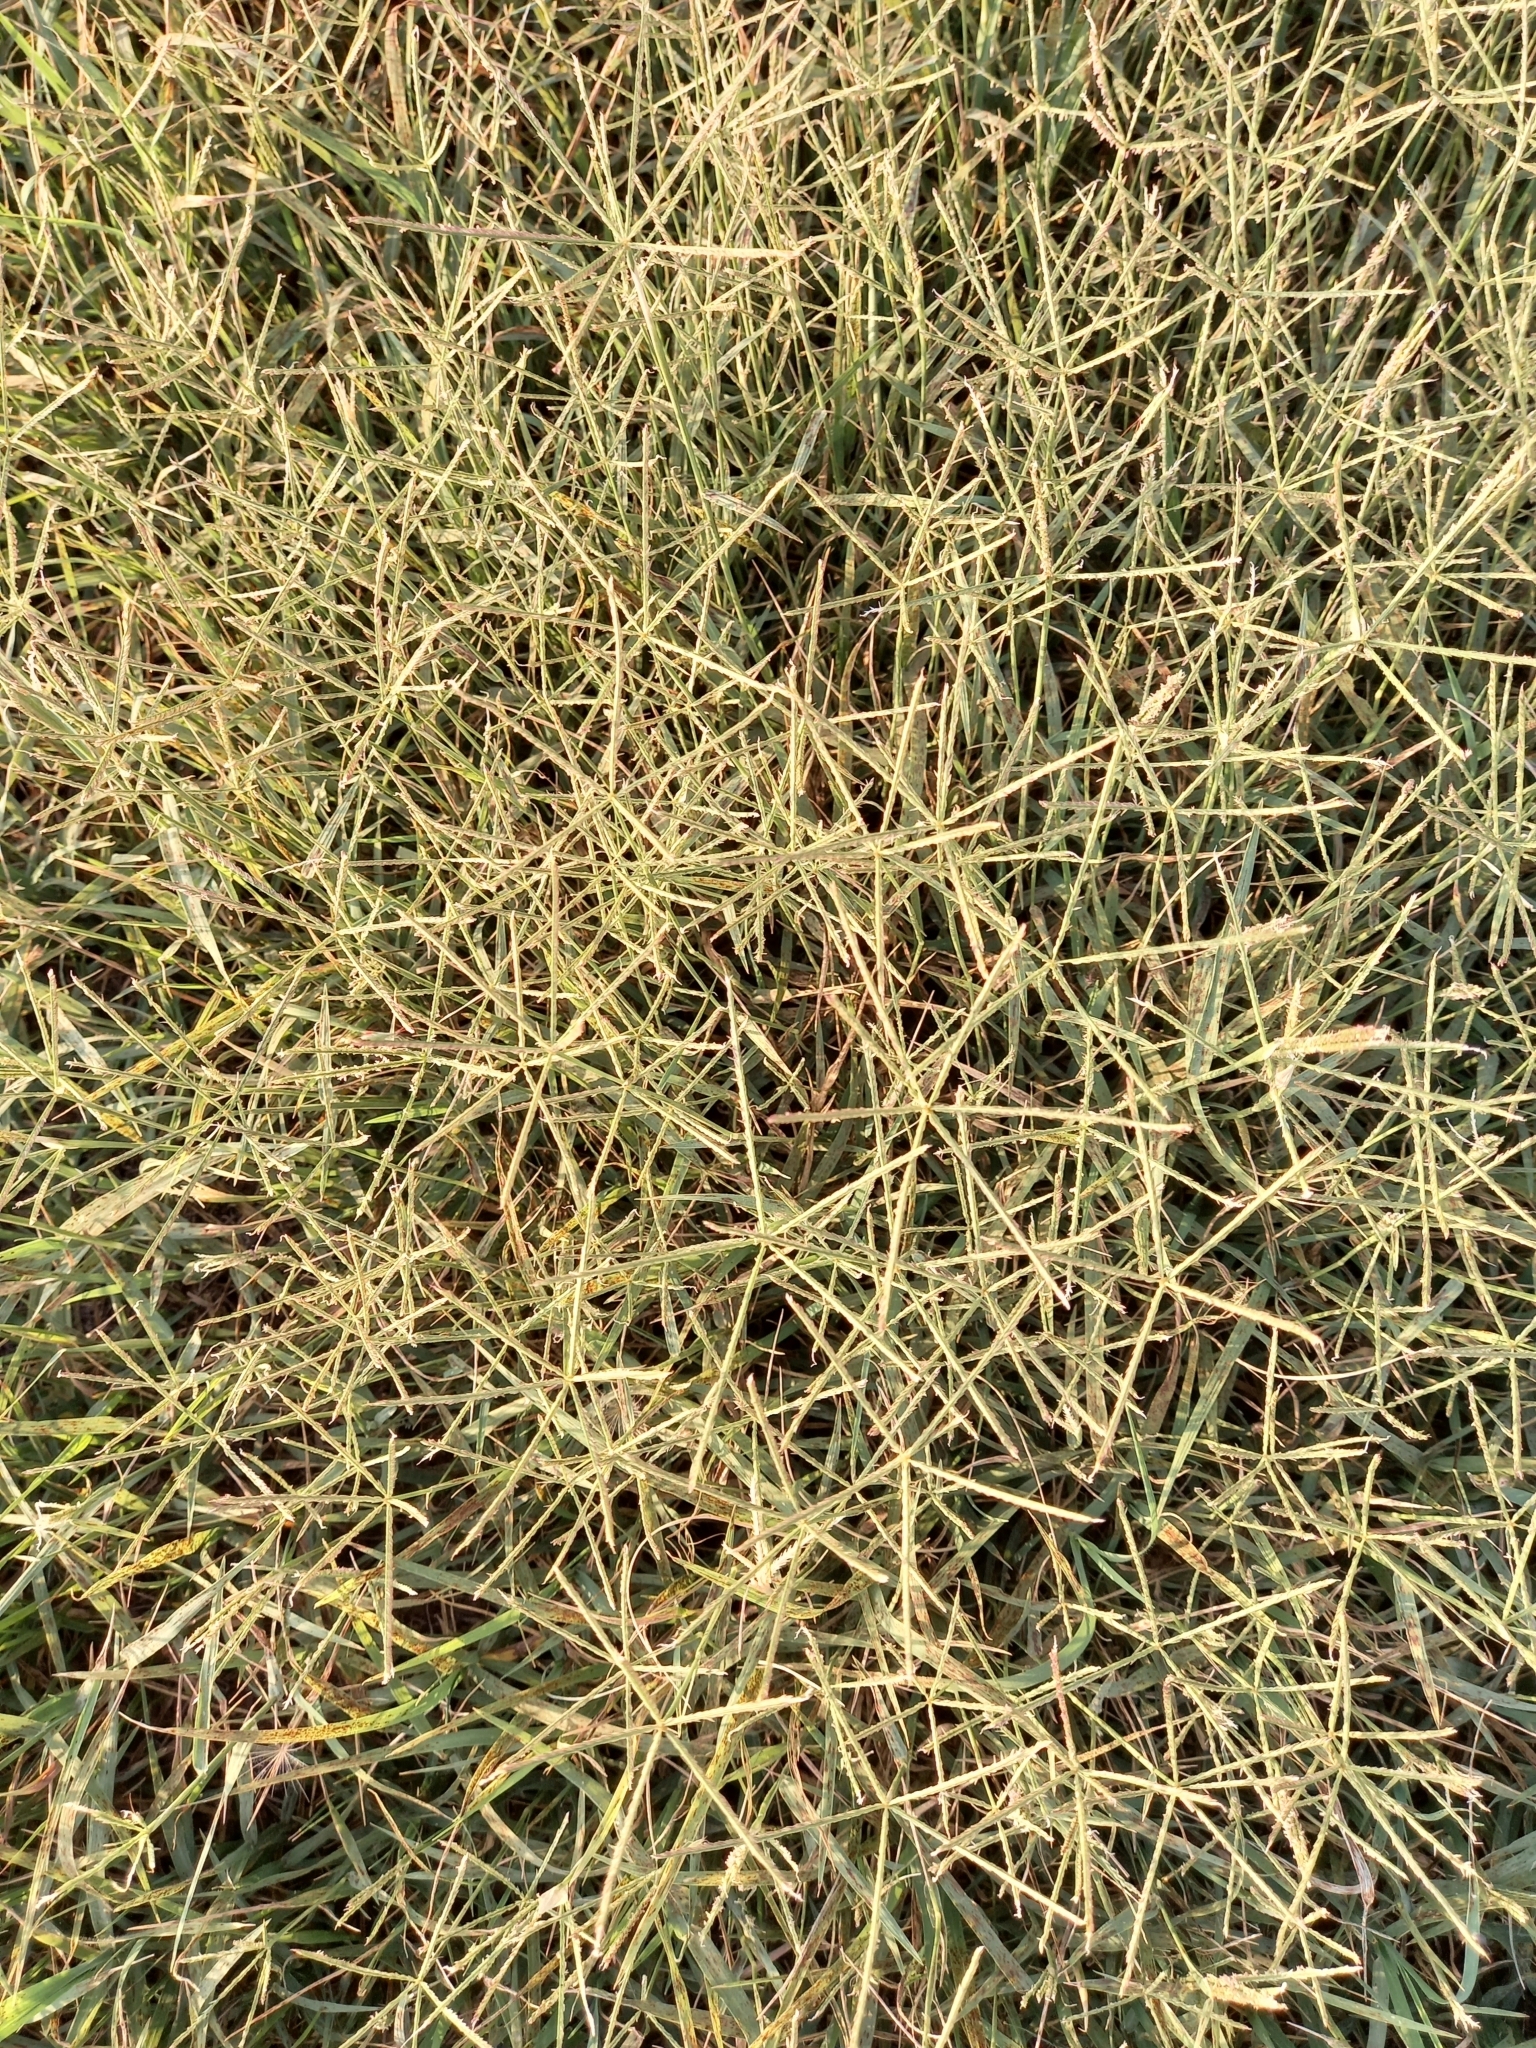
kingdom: Plantae
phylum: Tracheophyta
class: Liliopsida
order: Poales
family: Poaceae
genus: Cynodon
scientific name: Cynodon dactylon
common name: Bermuda grass
